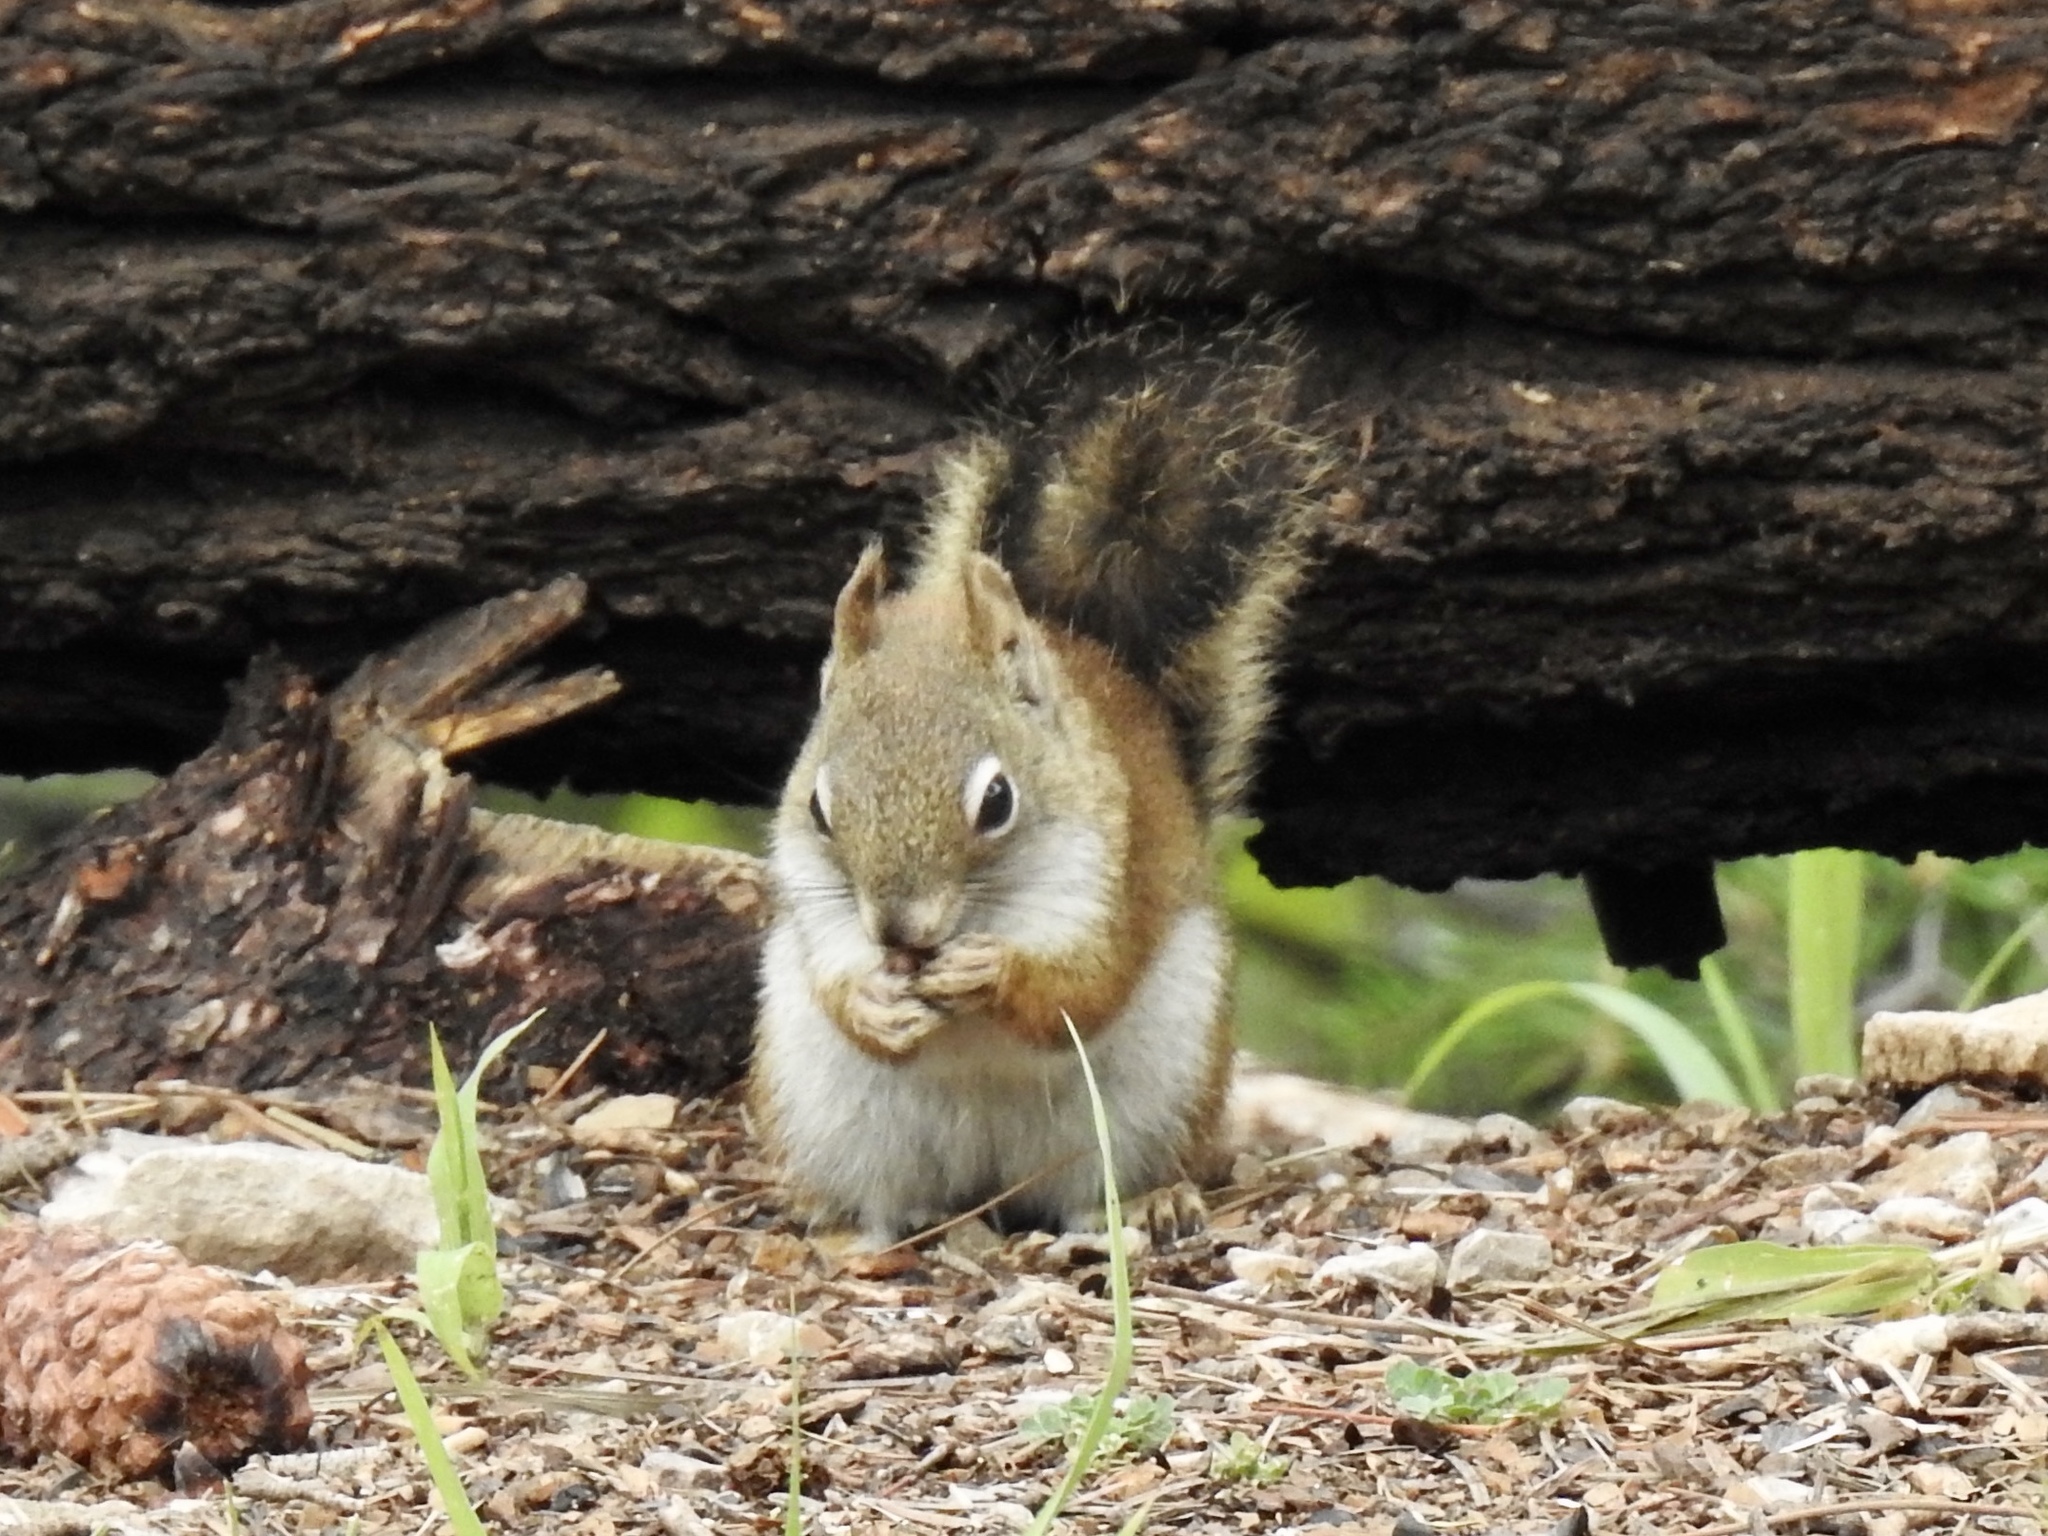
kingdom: Animalia
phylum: Chordata
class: Mammalia
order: Rodentia
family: Sciuridae
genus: Tamiasciurus
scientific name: Tamiasciurus hudsonicus
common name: Red squirrel
